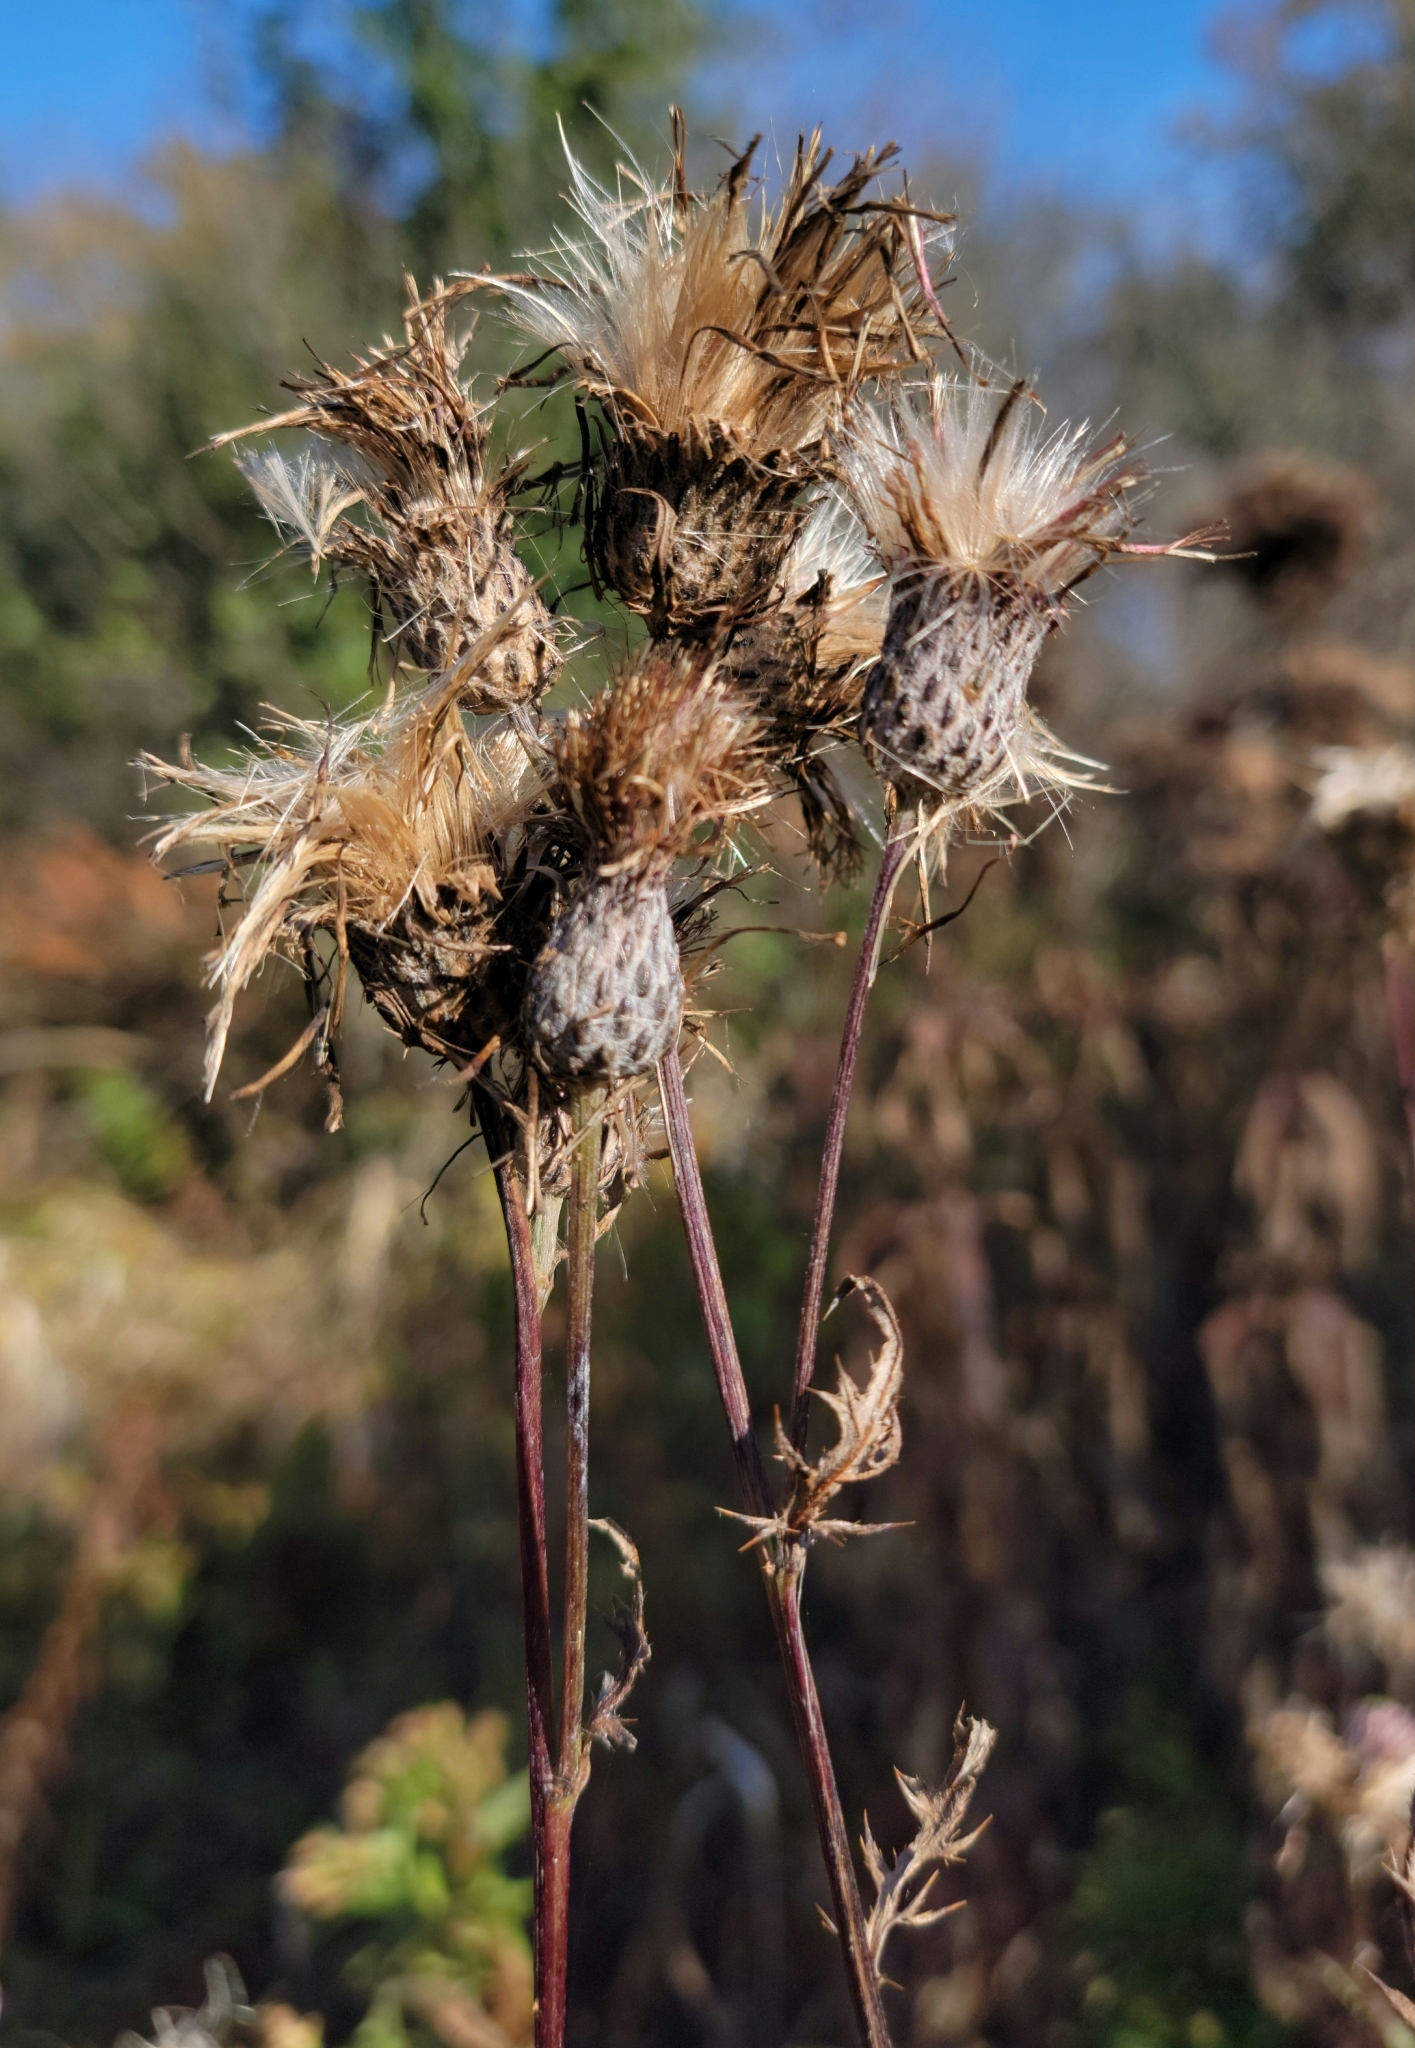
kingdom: Plantae
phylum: Tracheophyta
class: Magnoliopsida
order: Asterales
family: Asteraceae
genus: Cirsium
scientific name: Cirsium muticum
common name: Dunce-nettle
